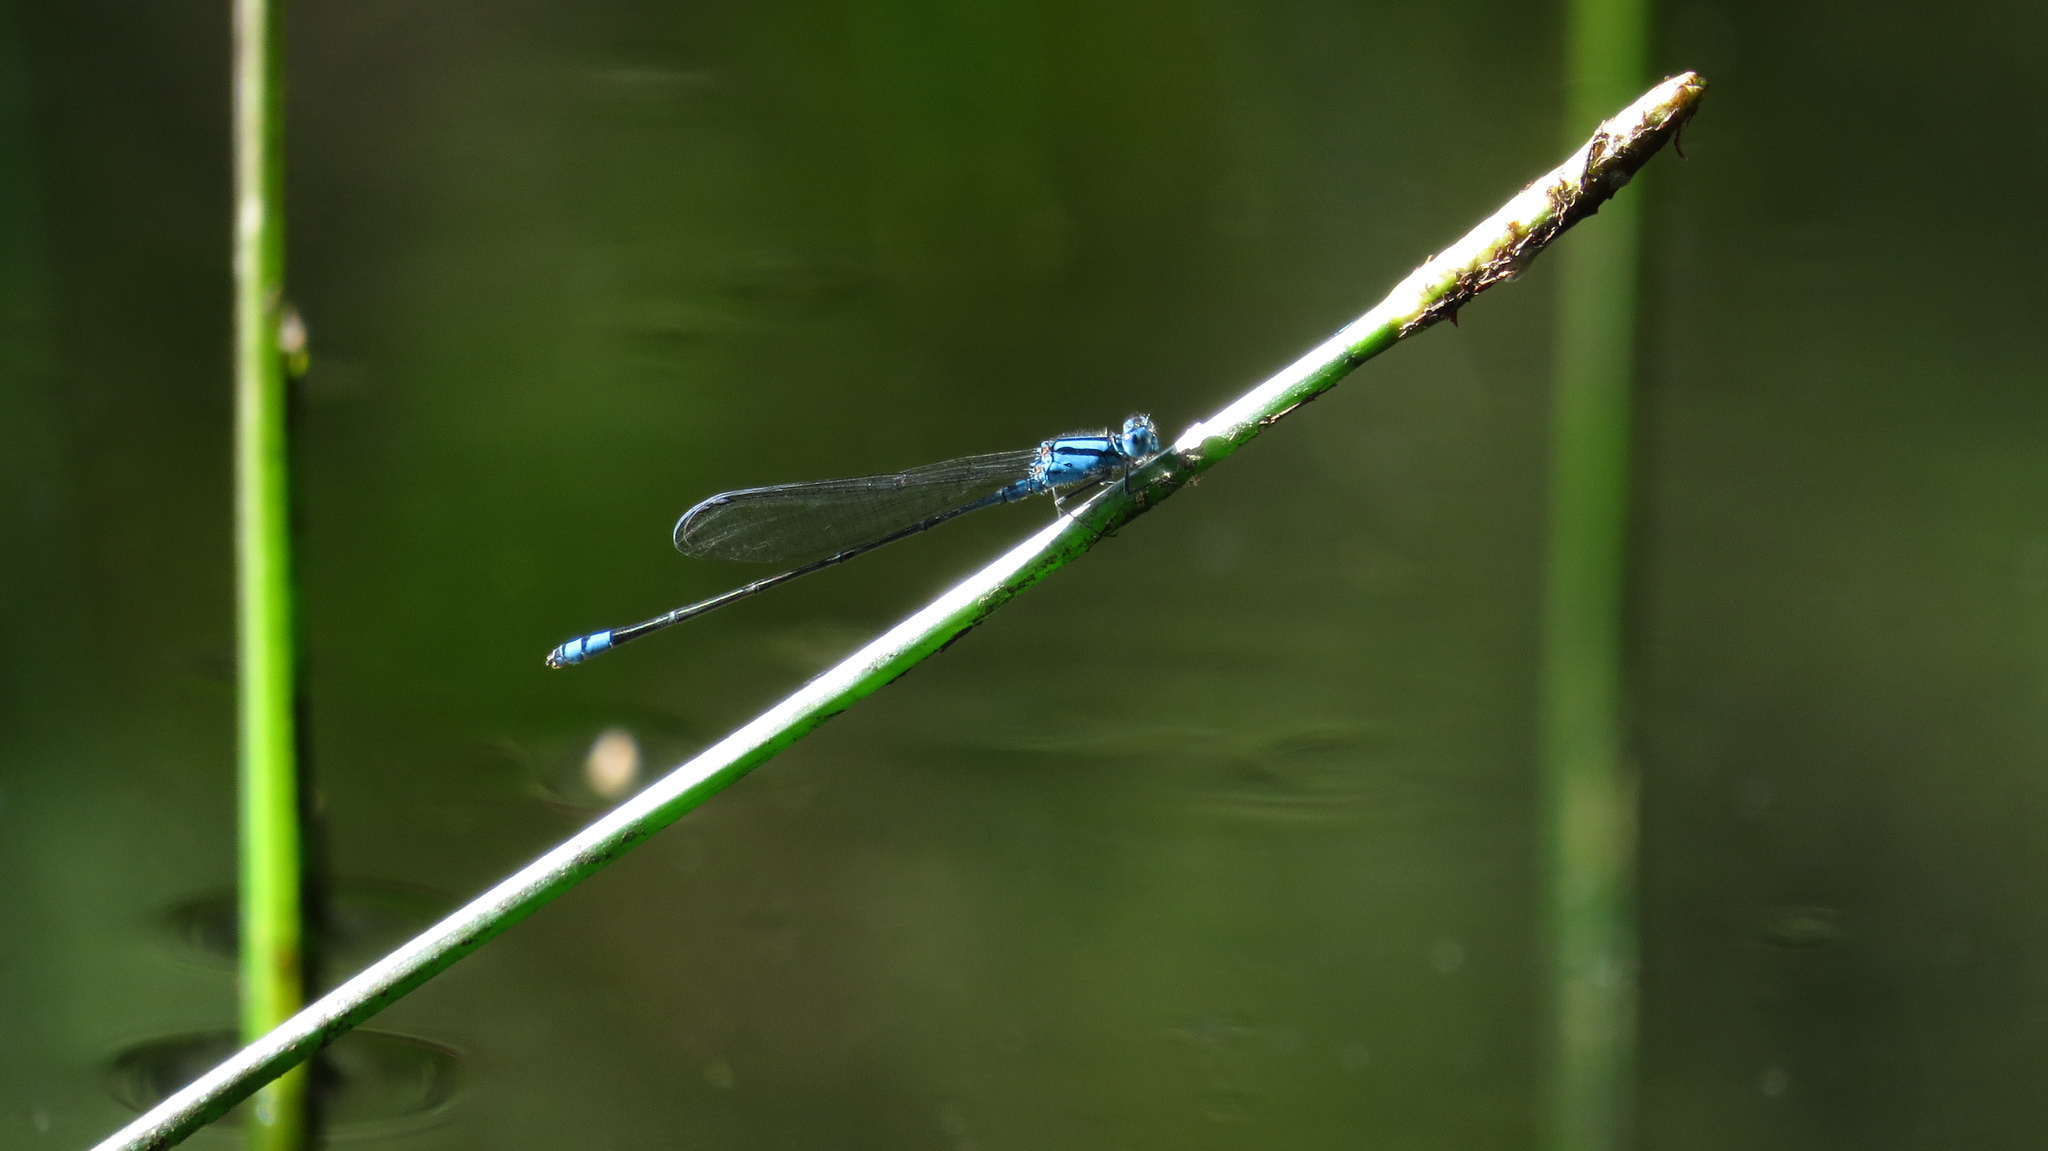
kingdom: Animalia
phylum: Arthropoda
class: Insecta
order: Odonata
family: Coenagrionidae
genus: Pseudagrion
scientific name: Pseudagrion microcephalum
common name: Blue riverdamsel
